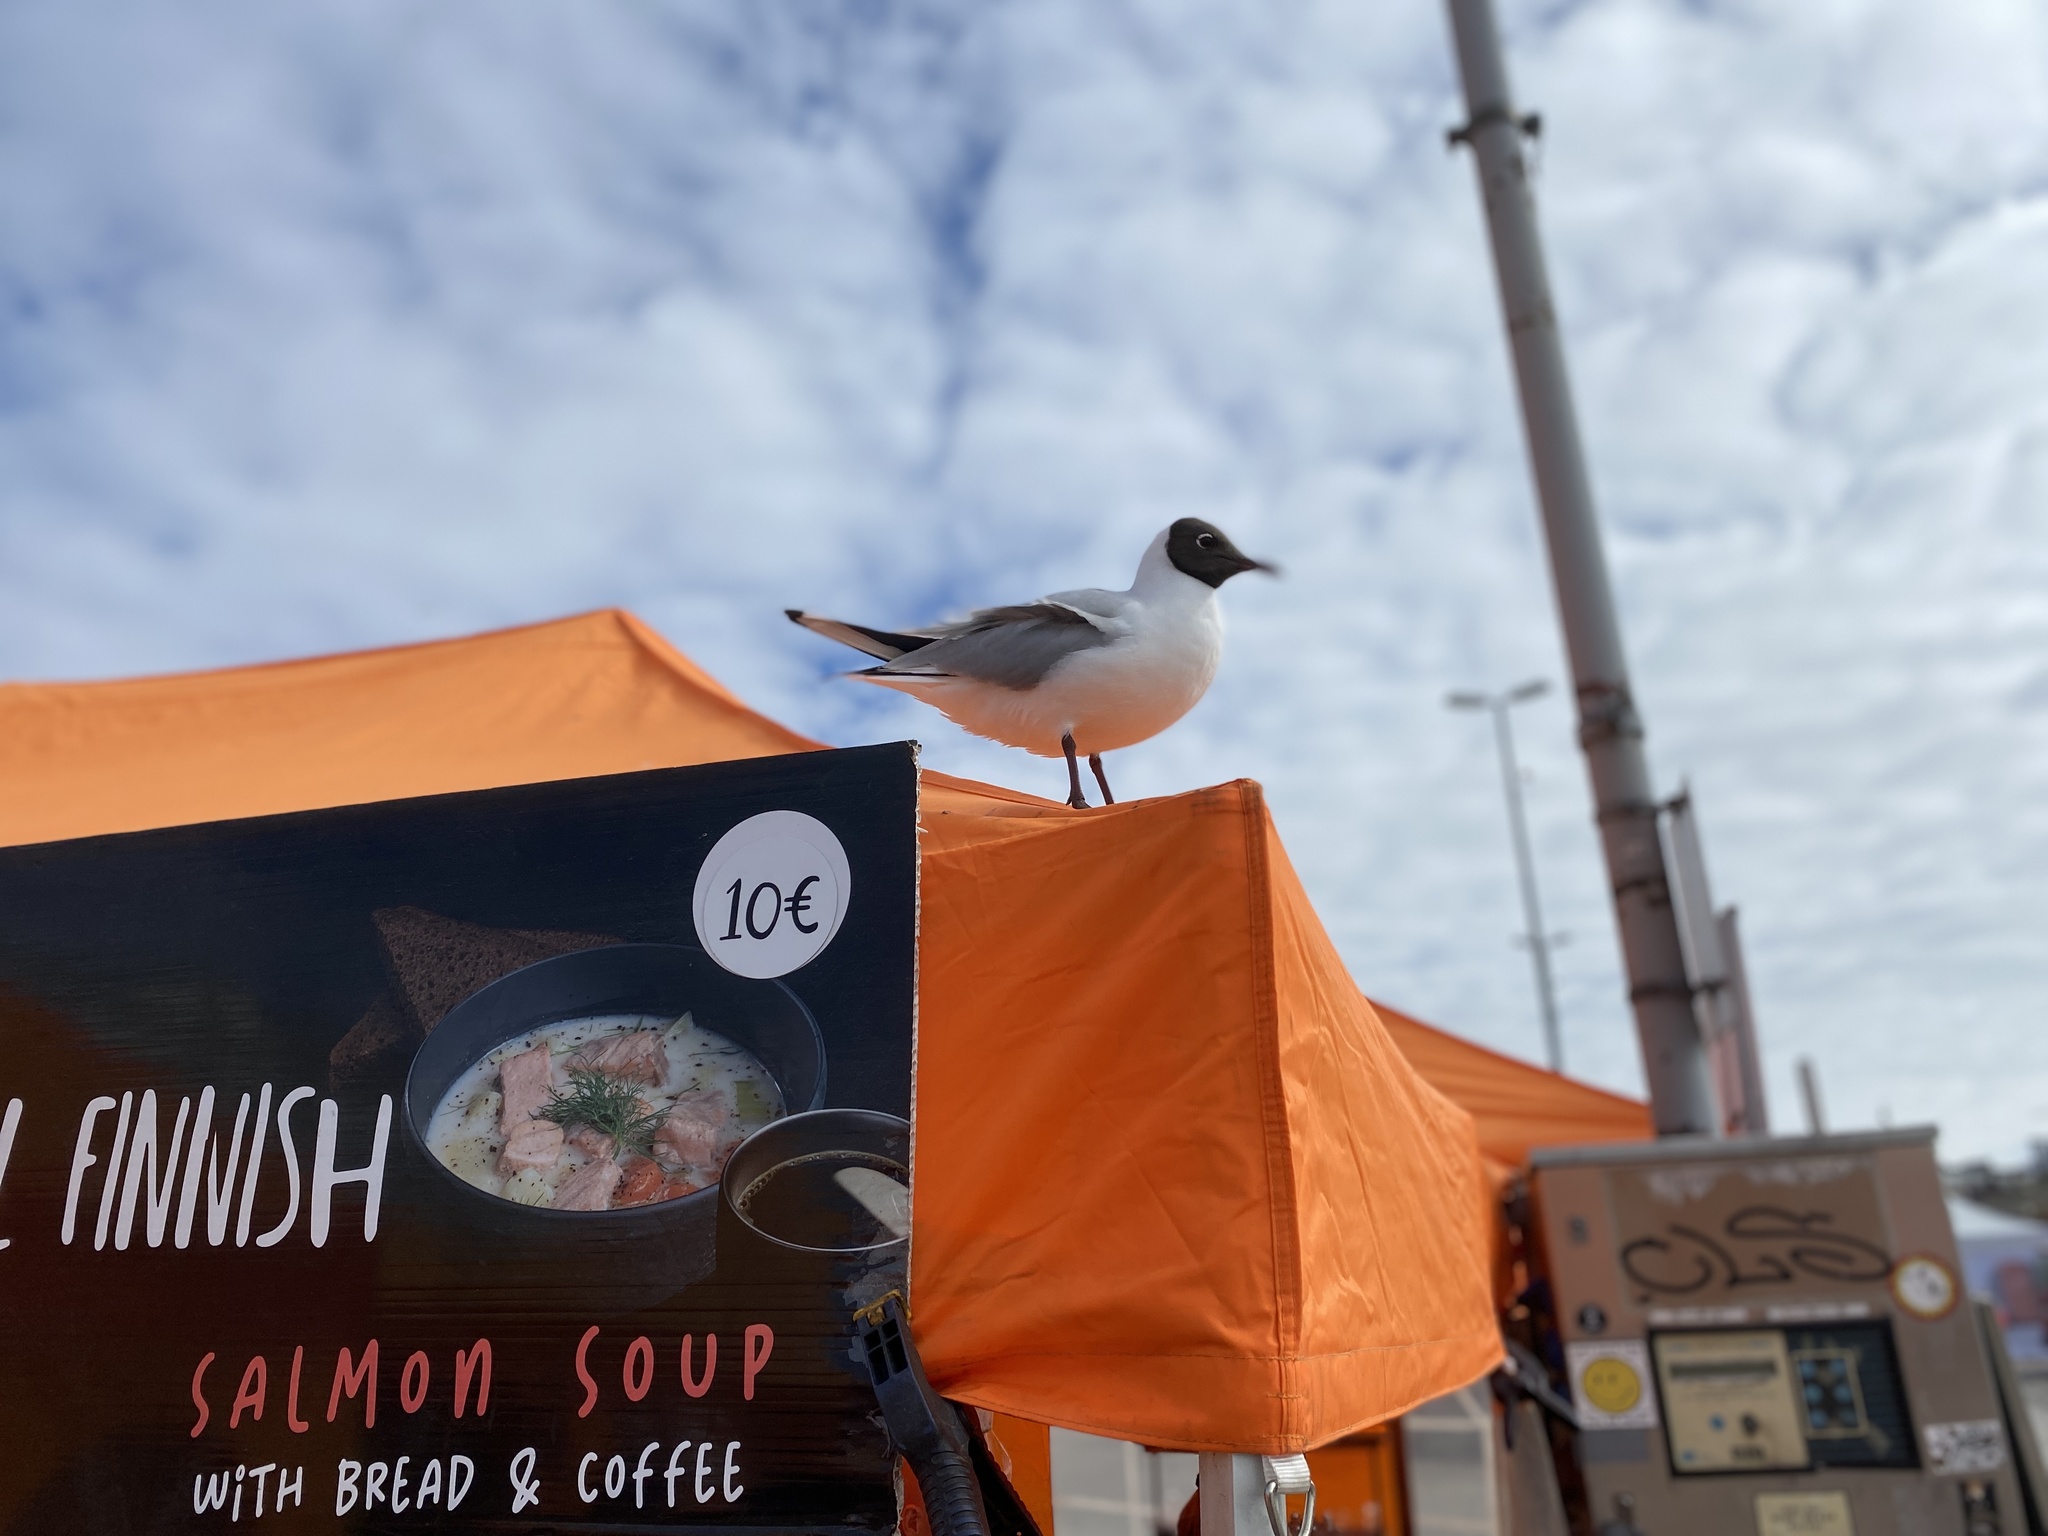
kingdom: Animalia
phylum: Chordata
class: Aves
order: Charadriiformes
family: Laridae
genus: Chroicocephalus
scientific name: Chroicocephalus ridibundus
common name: Black-headed gull
